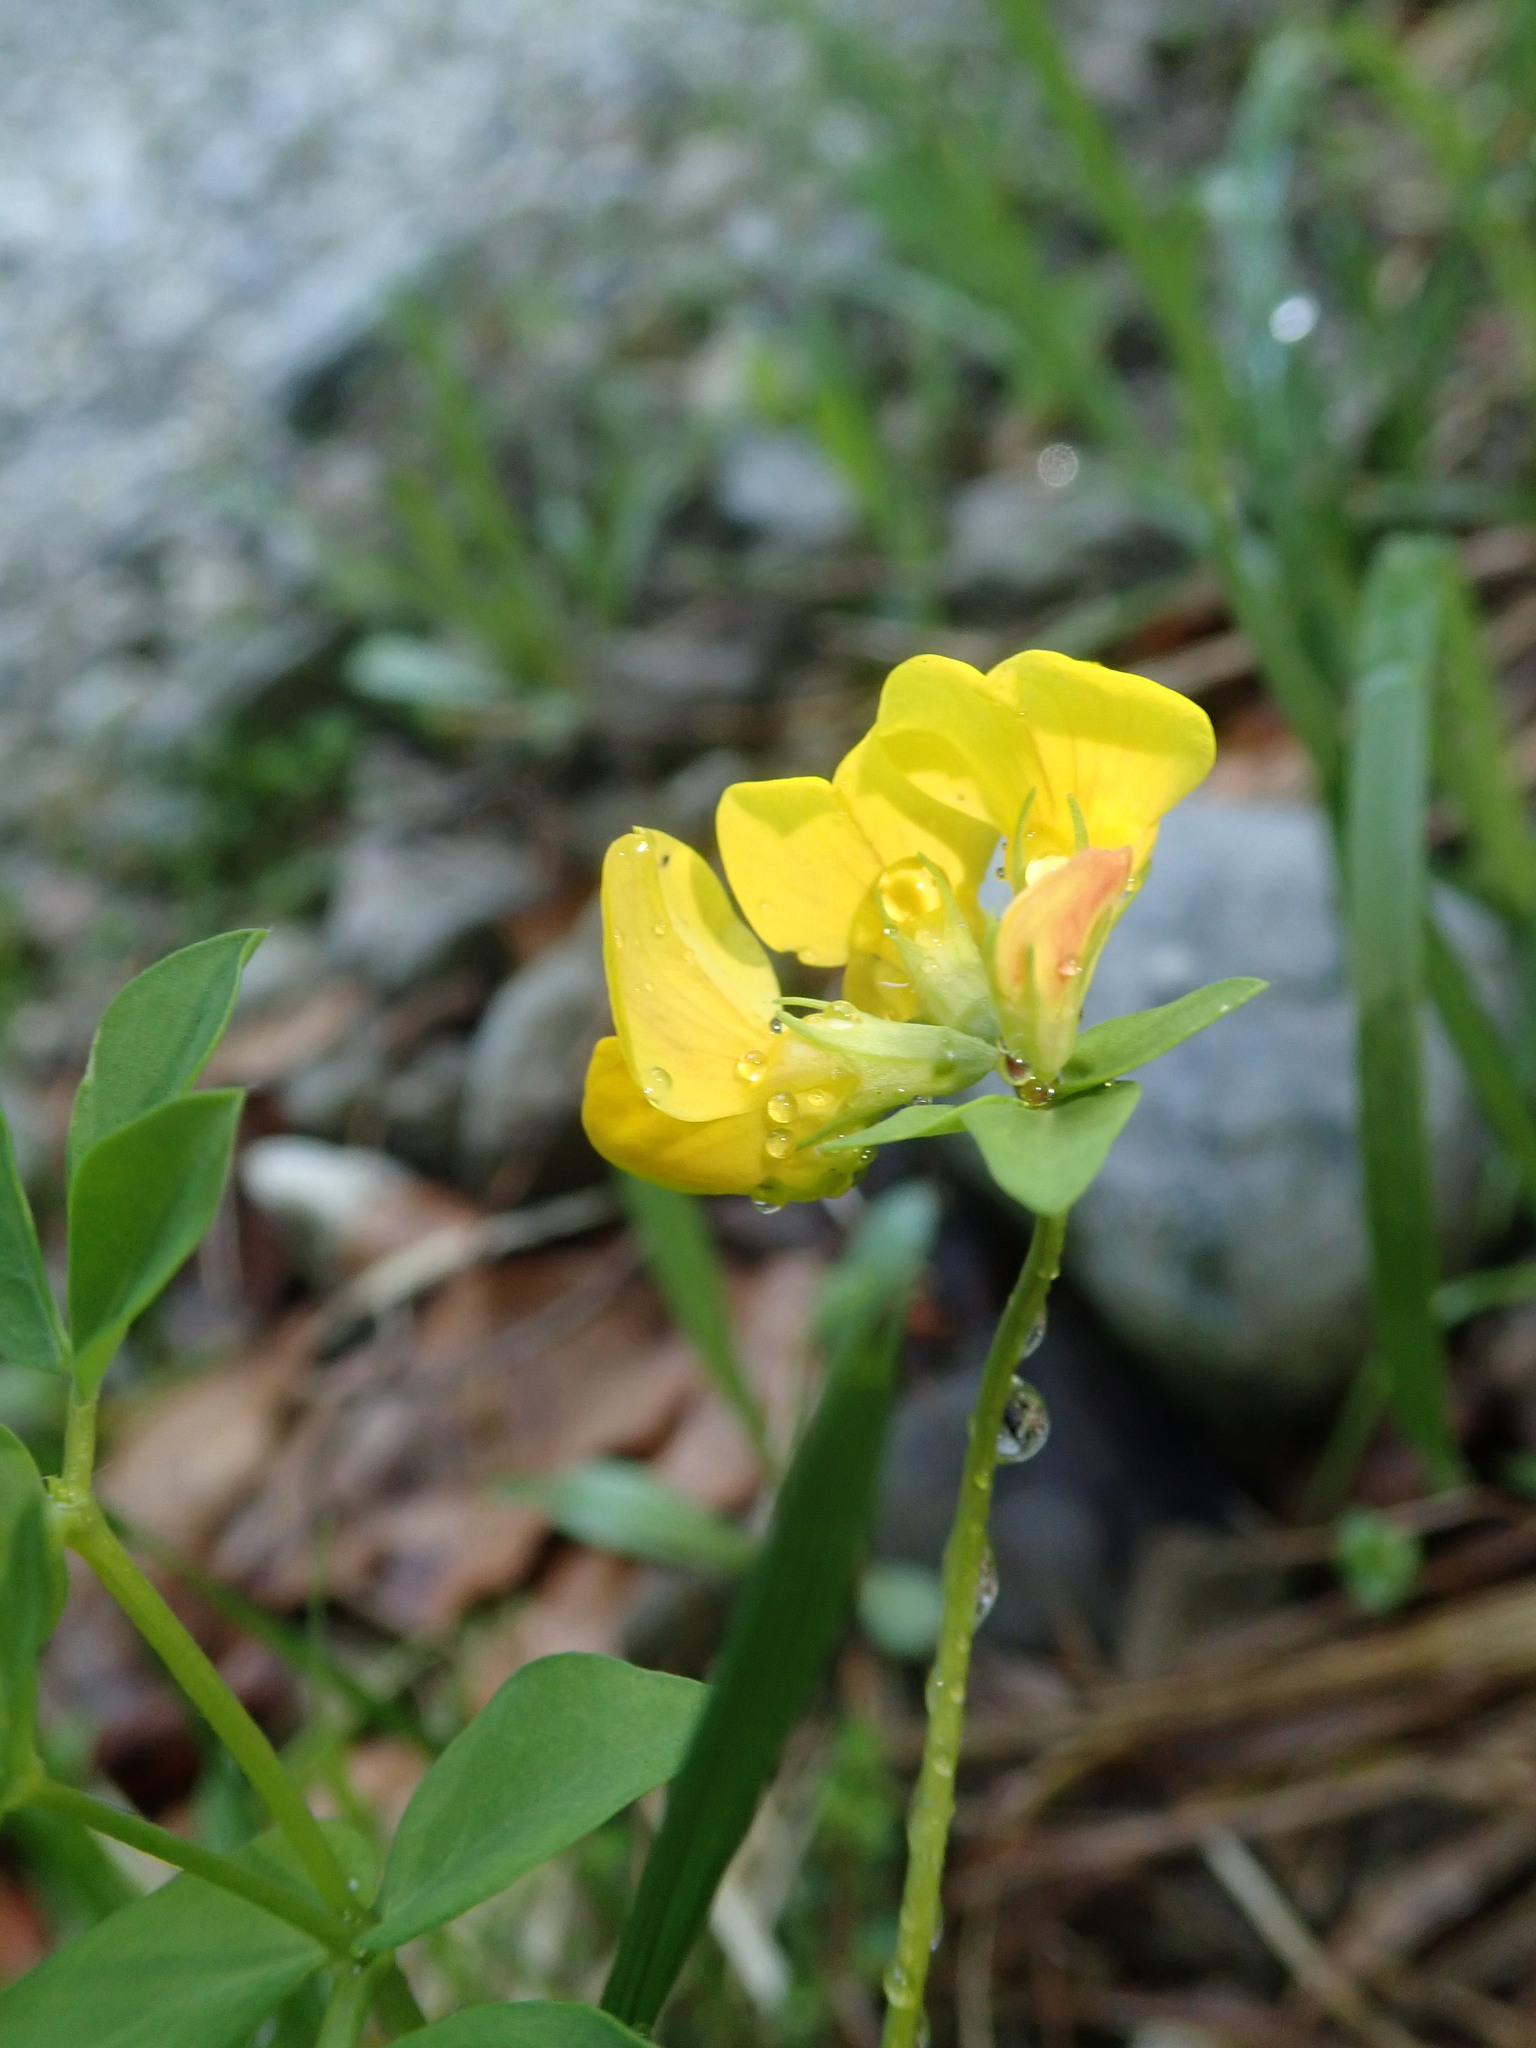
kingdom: Plantae
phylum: Tracheophyta
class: Magnoliopsida
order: Fabales
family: Fabaceae
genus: Lotus
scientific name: Lotus corniculatus
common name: Common bird's-foot-trefoil
